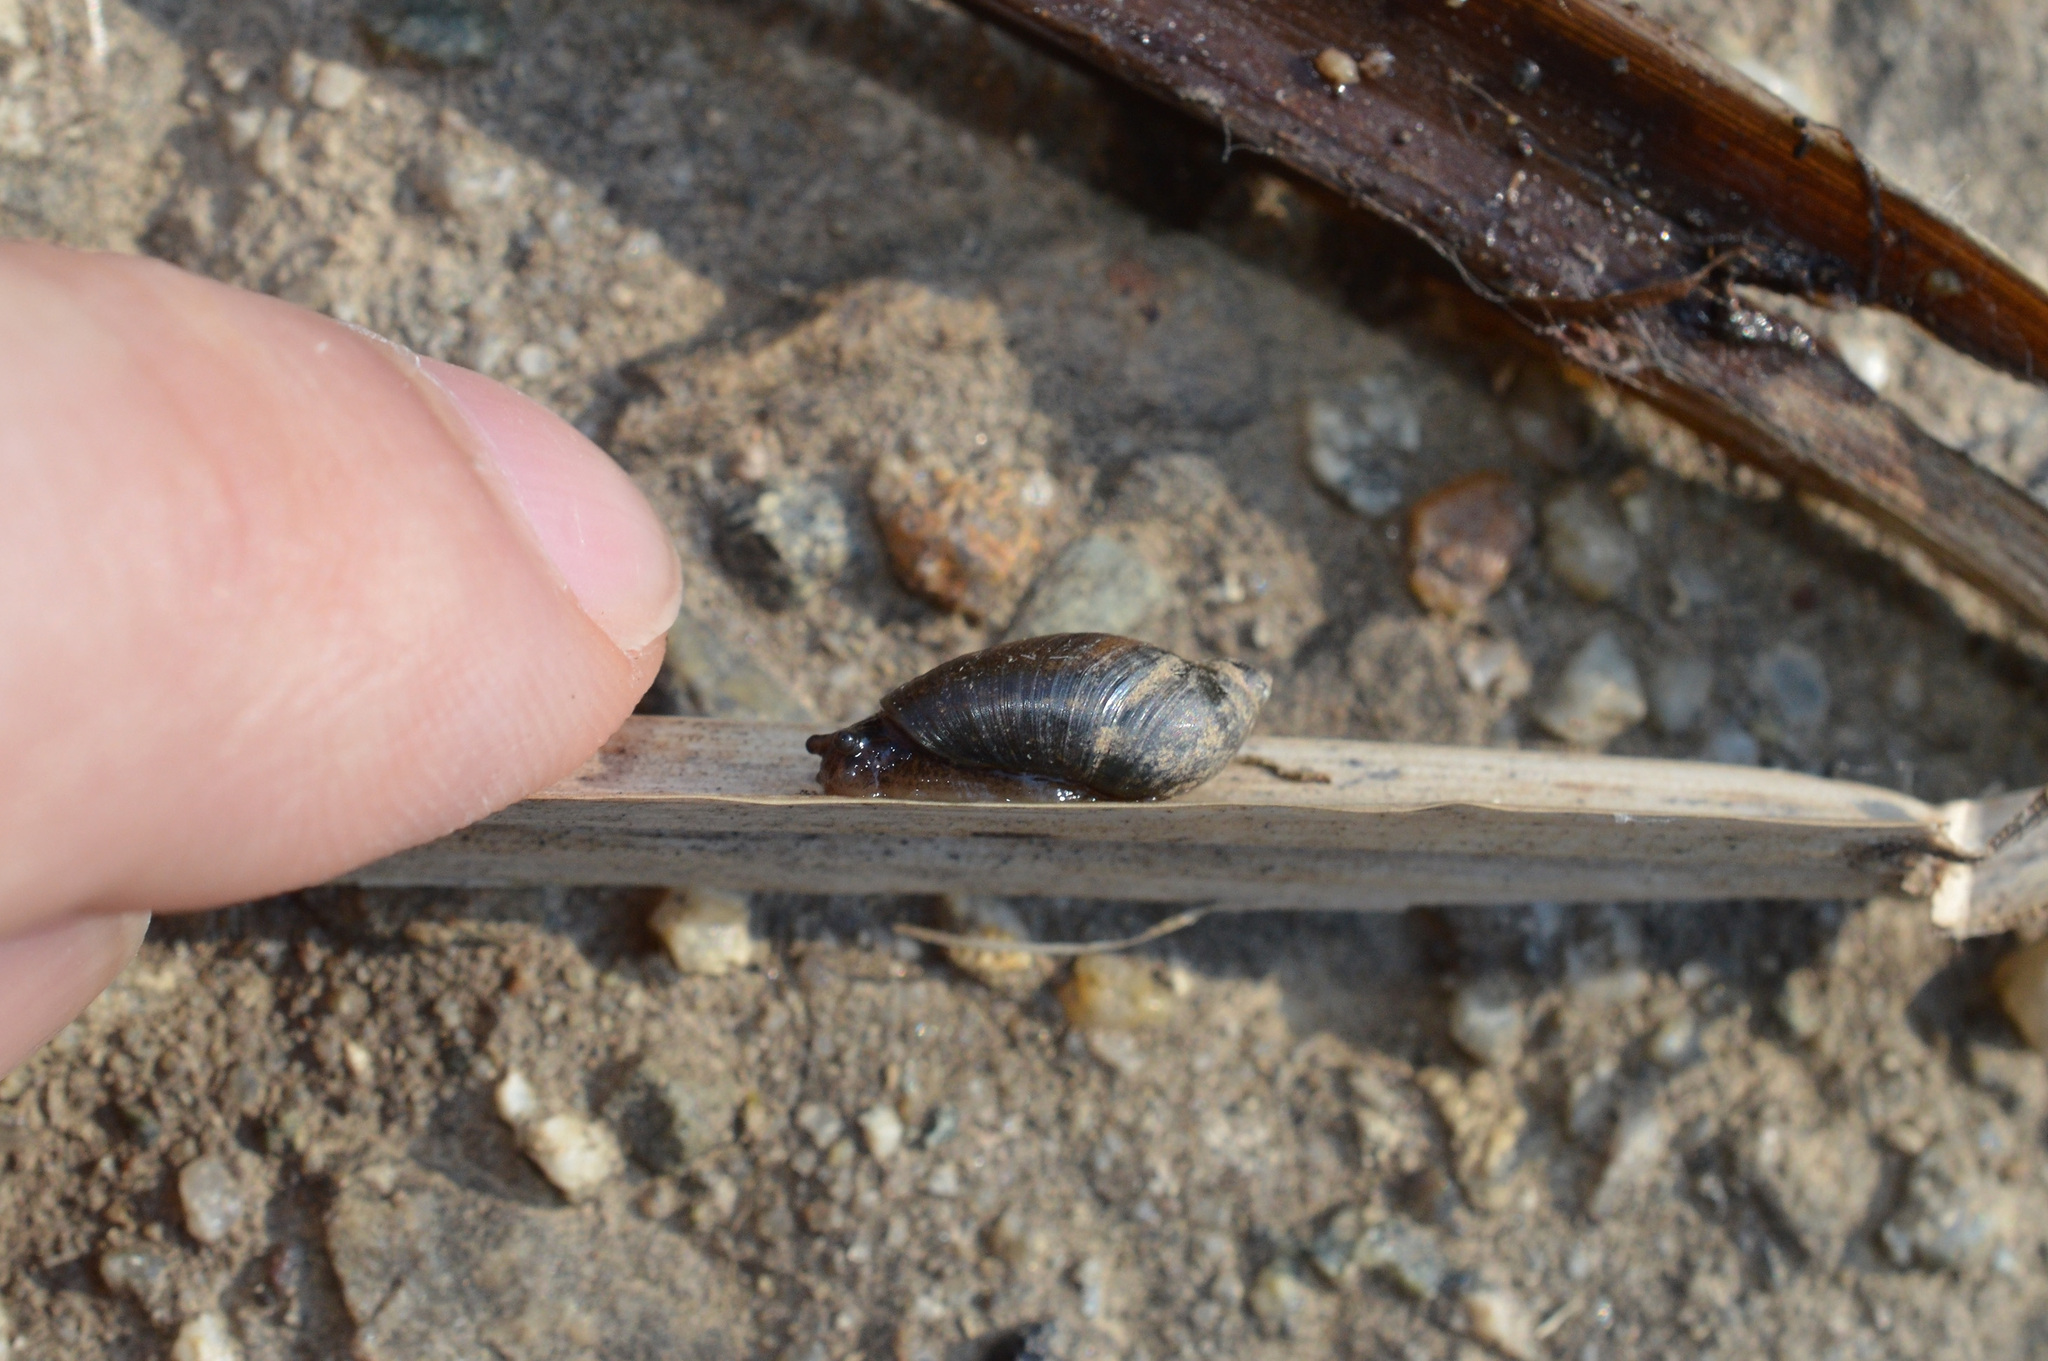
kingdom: Animalia
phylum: Mollusca
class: Gastropoda
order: Stylommatophora
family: Succineidae
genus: Oxyloma
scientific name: Oxyloma elegans
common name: Pfeiffer's amber snail
